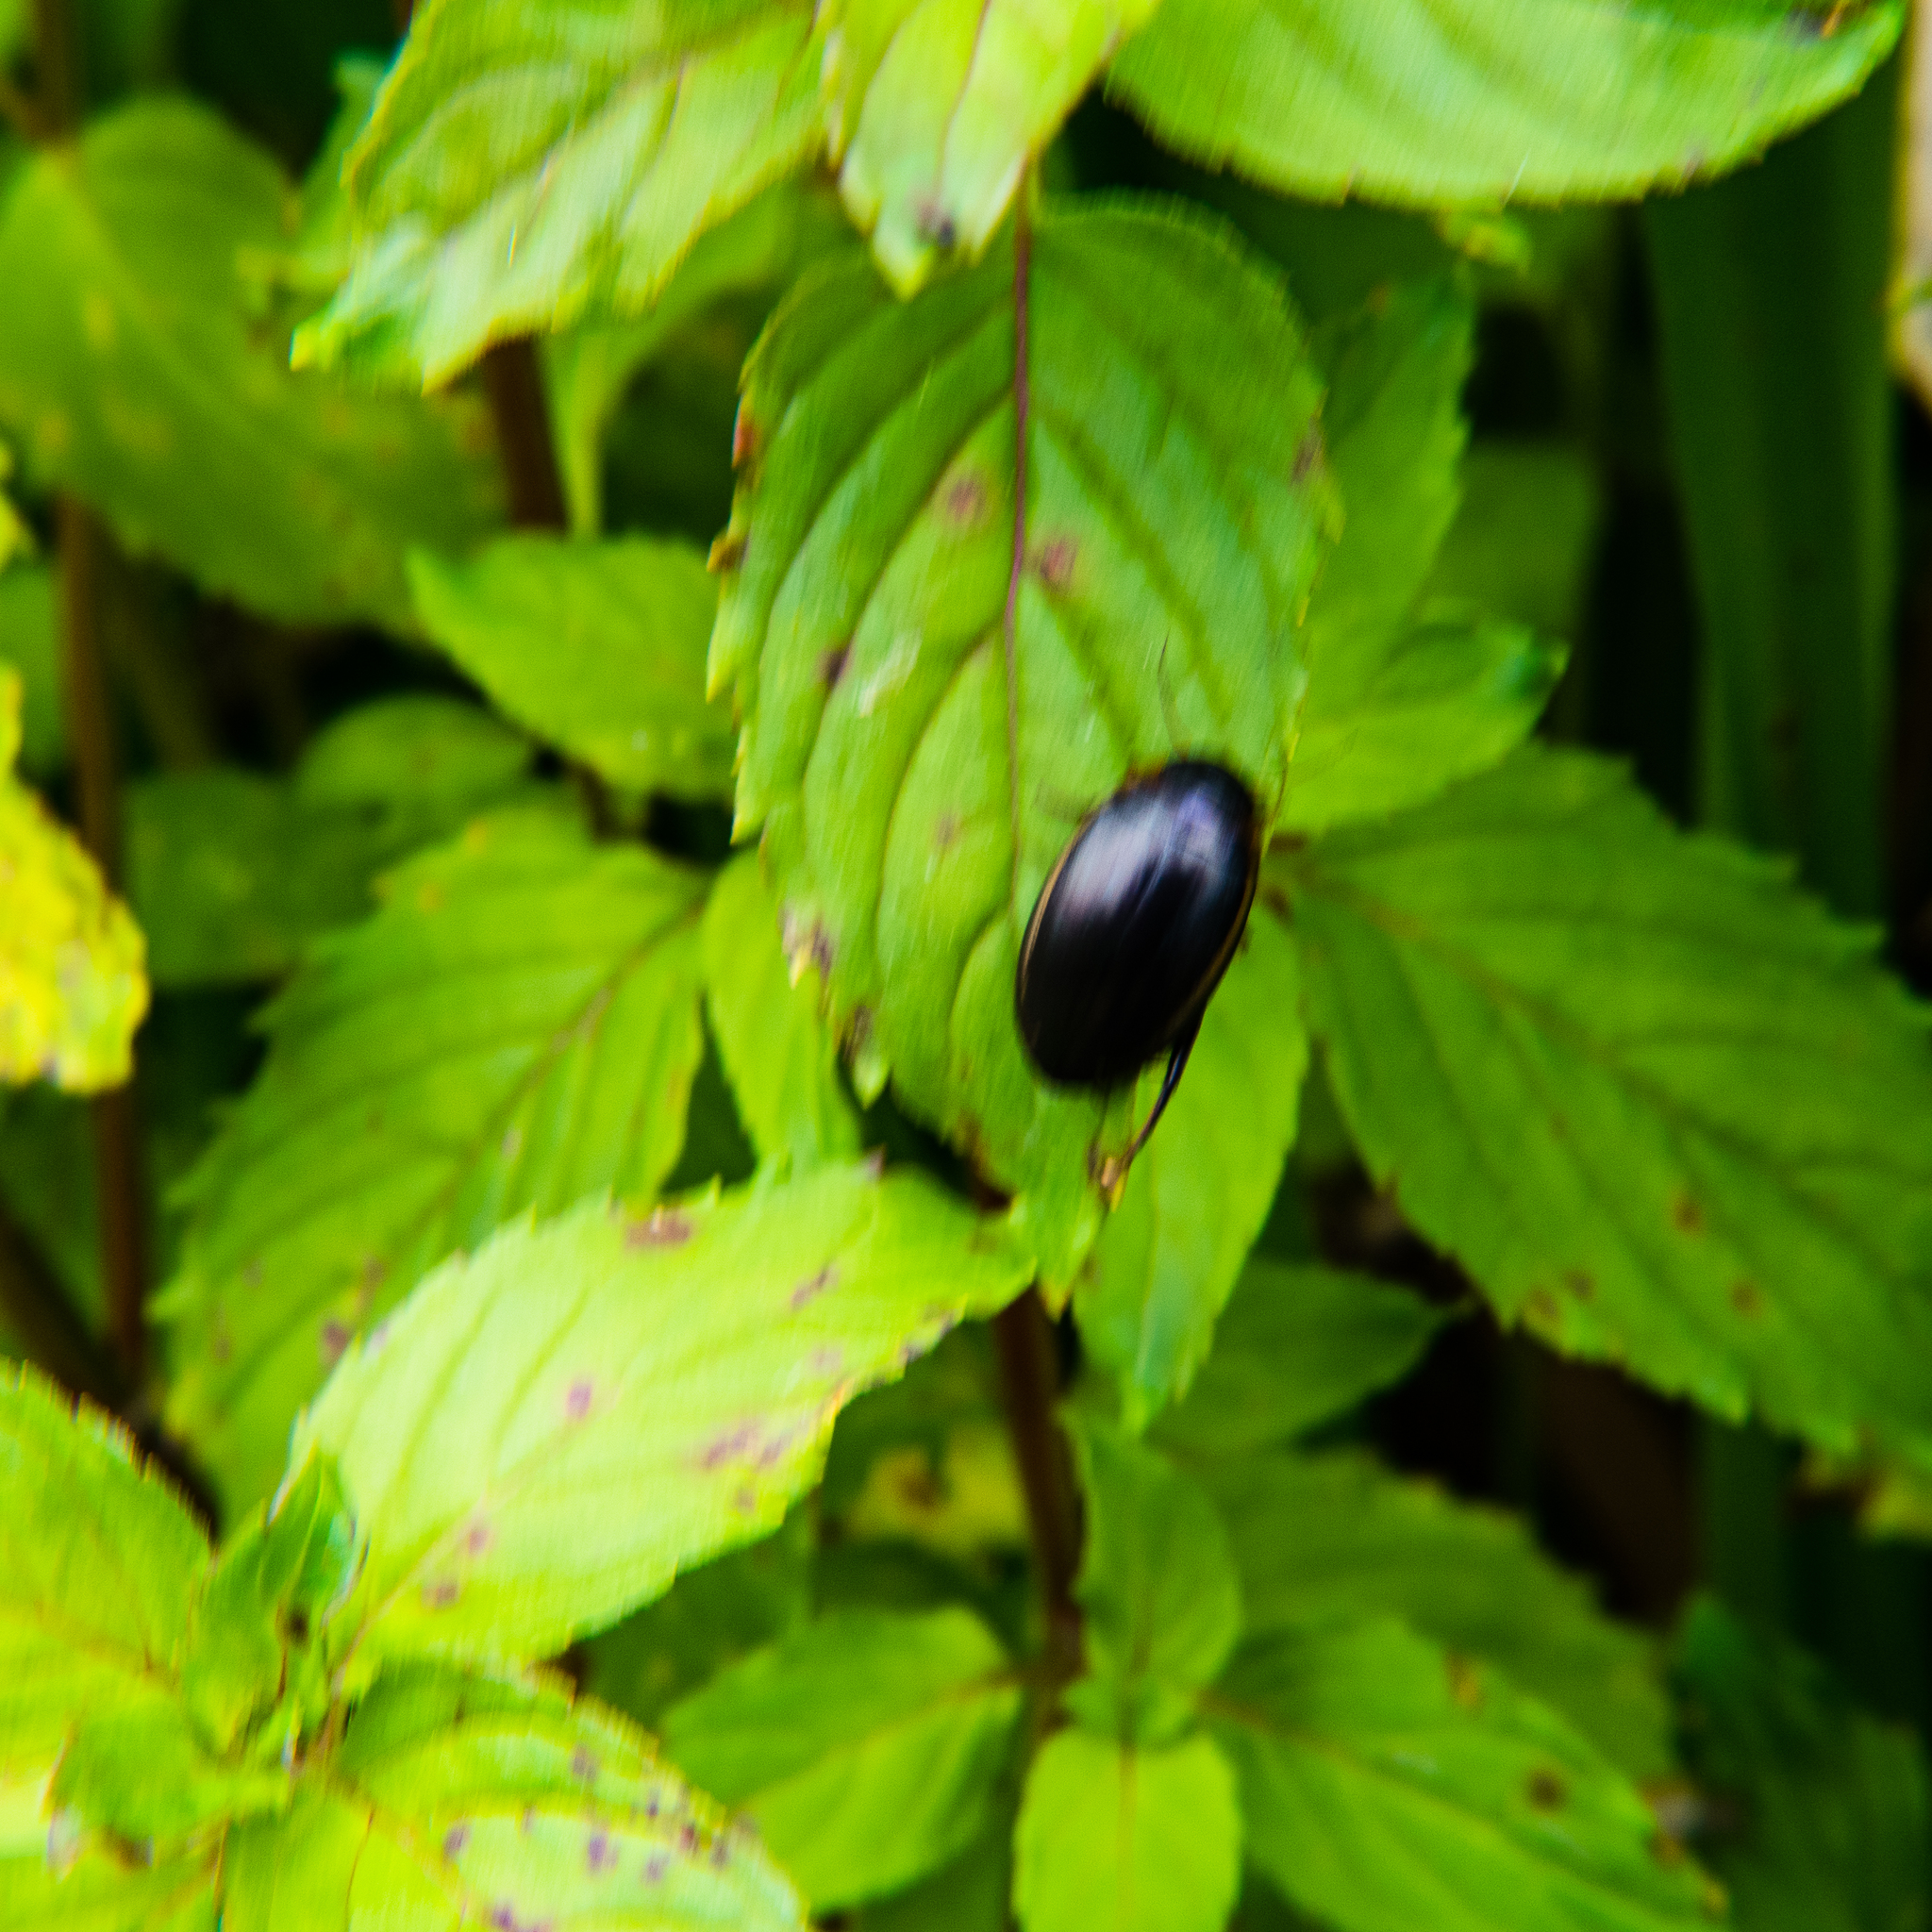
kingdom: Animalia
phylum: Arthropoda
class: Insecta
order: Coleoptera
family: Dytiscidae
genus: Hydaticus
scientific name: Hydaticus seminiger
